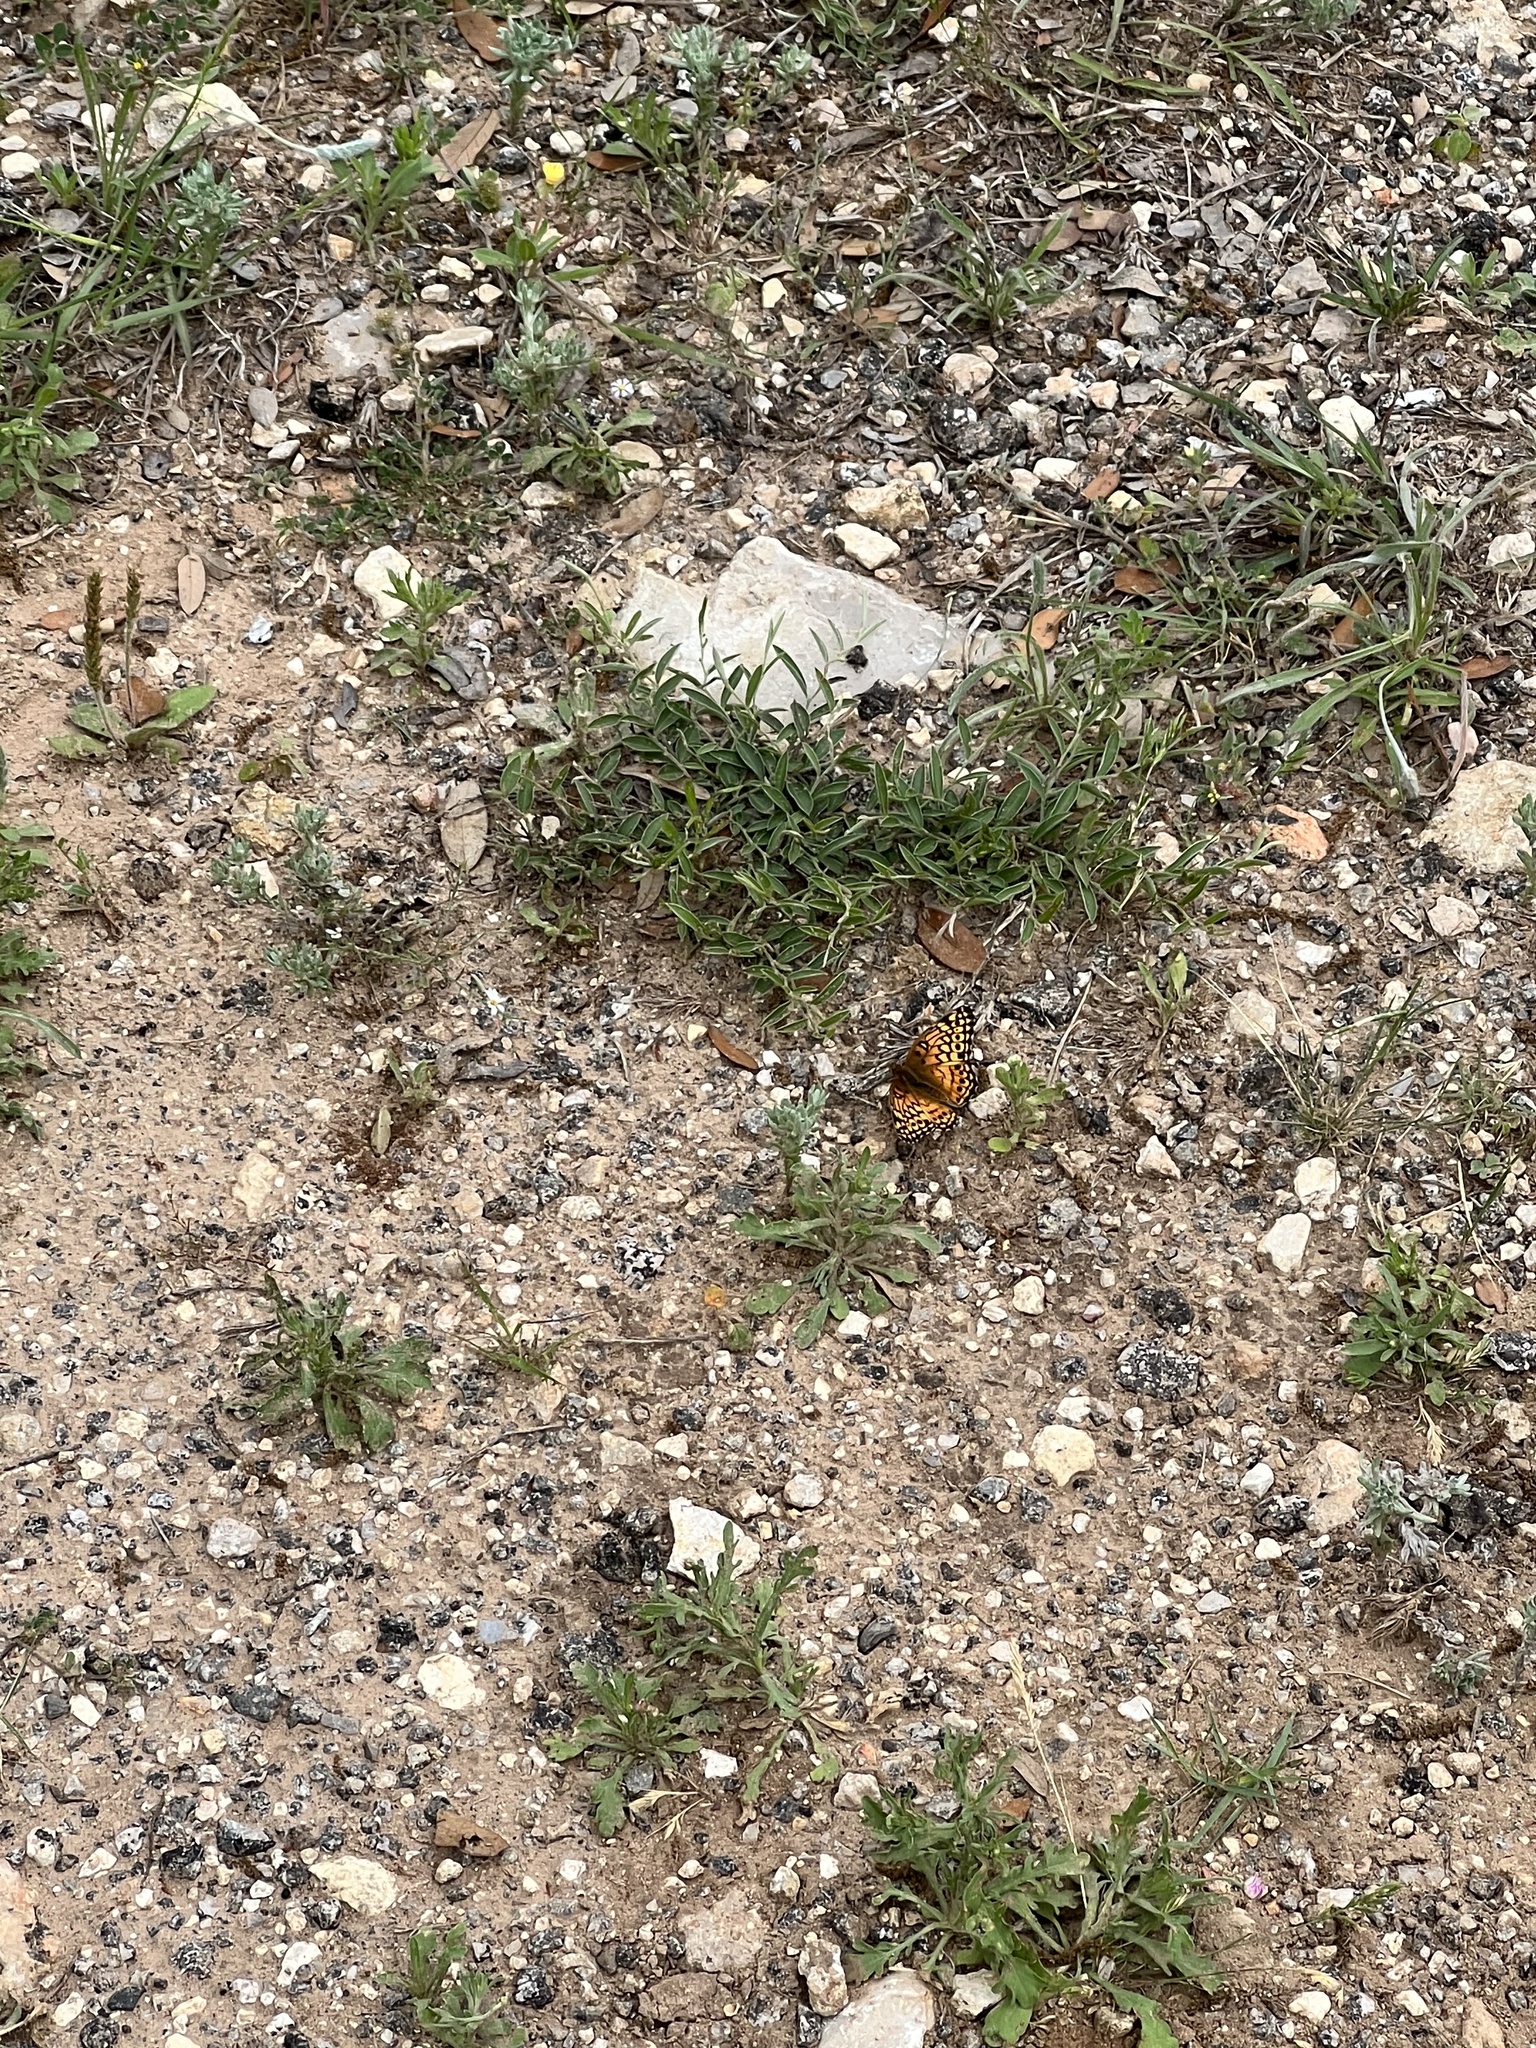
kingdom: Animalia
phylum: Arthropoda
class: Insecta
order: Lepidoptera
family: Nymphalidae
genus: Euptoieta
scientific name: Euptoieta claudia
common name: Variegated fritillary
